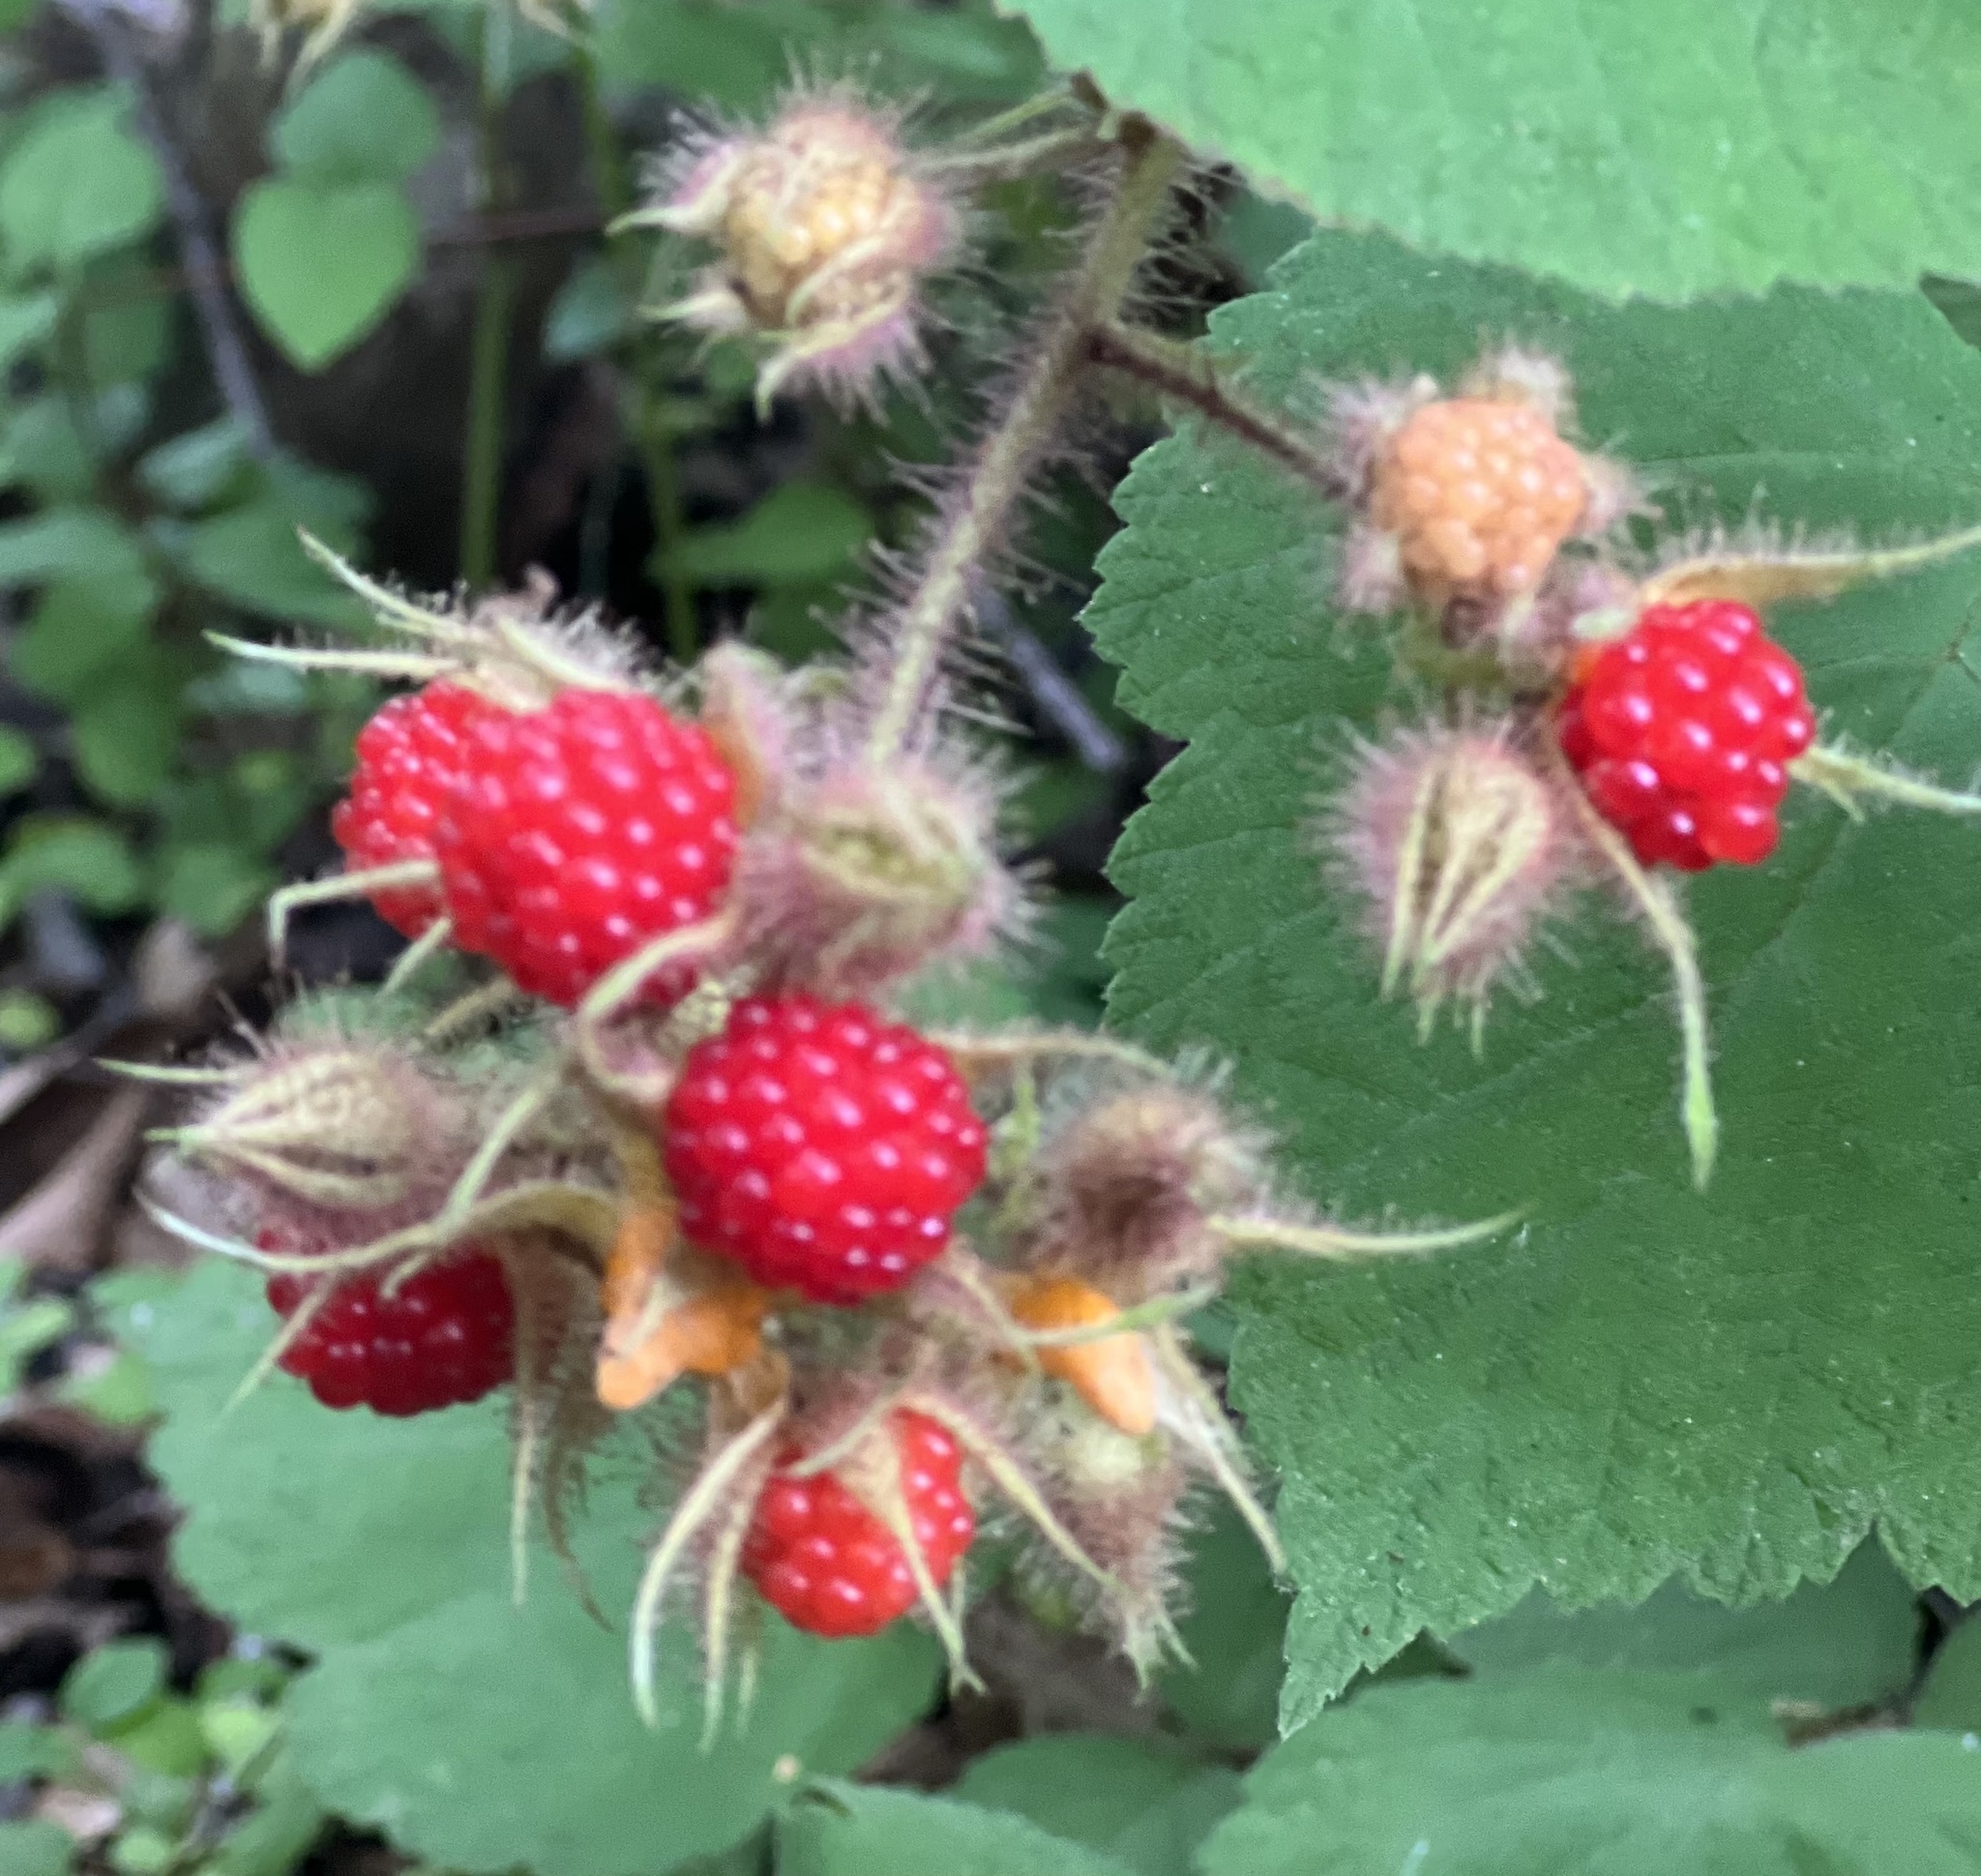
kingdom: Plantae
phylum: Tracheophyta
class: Magnoliopsida
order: Rosales
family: Rosaceae
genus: Rubus
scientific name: Rubus phoenicolasius
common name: Japanese wineberry
